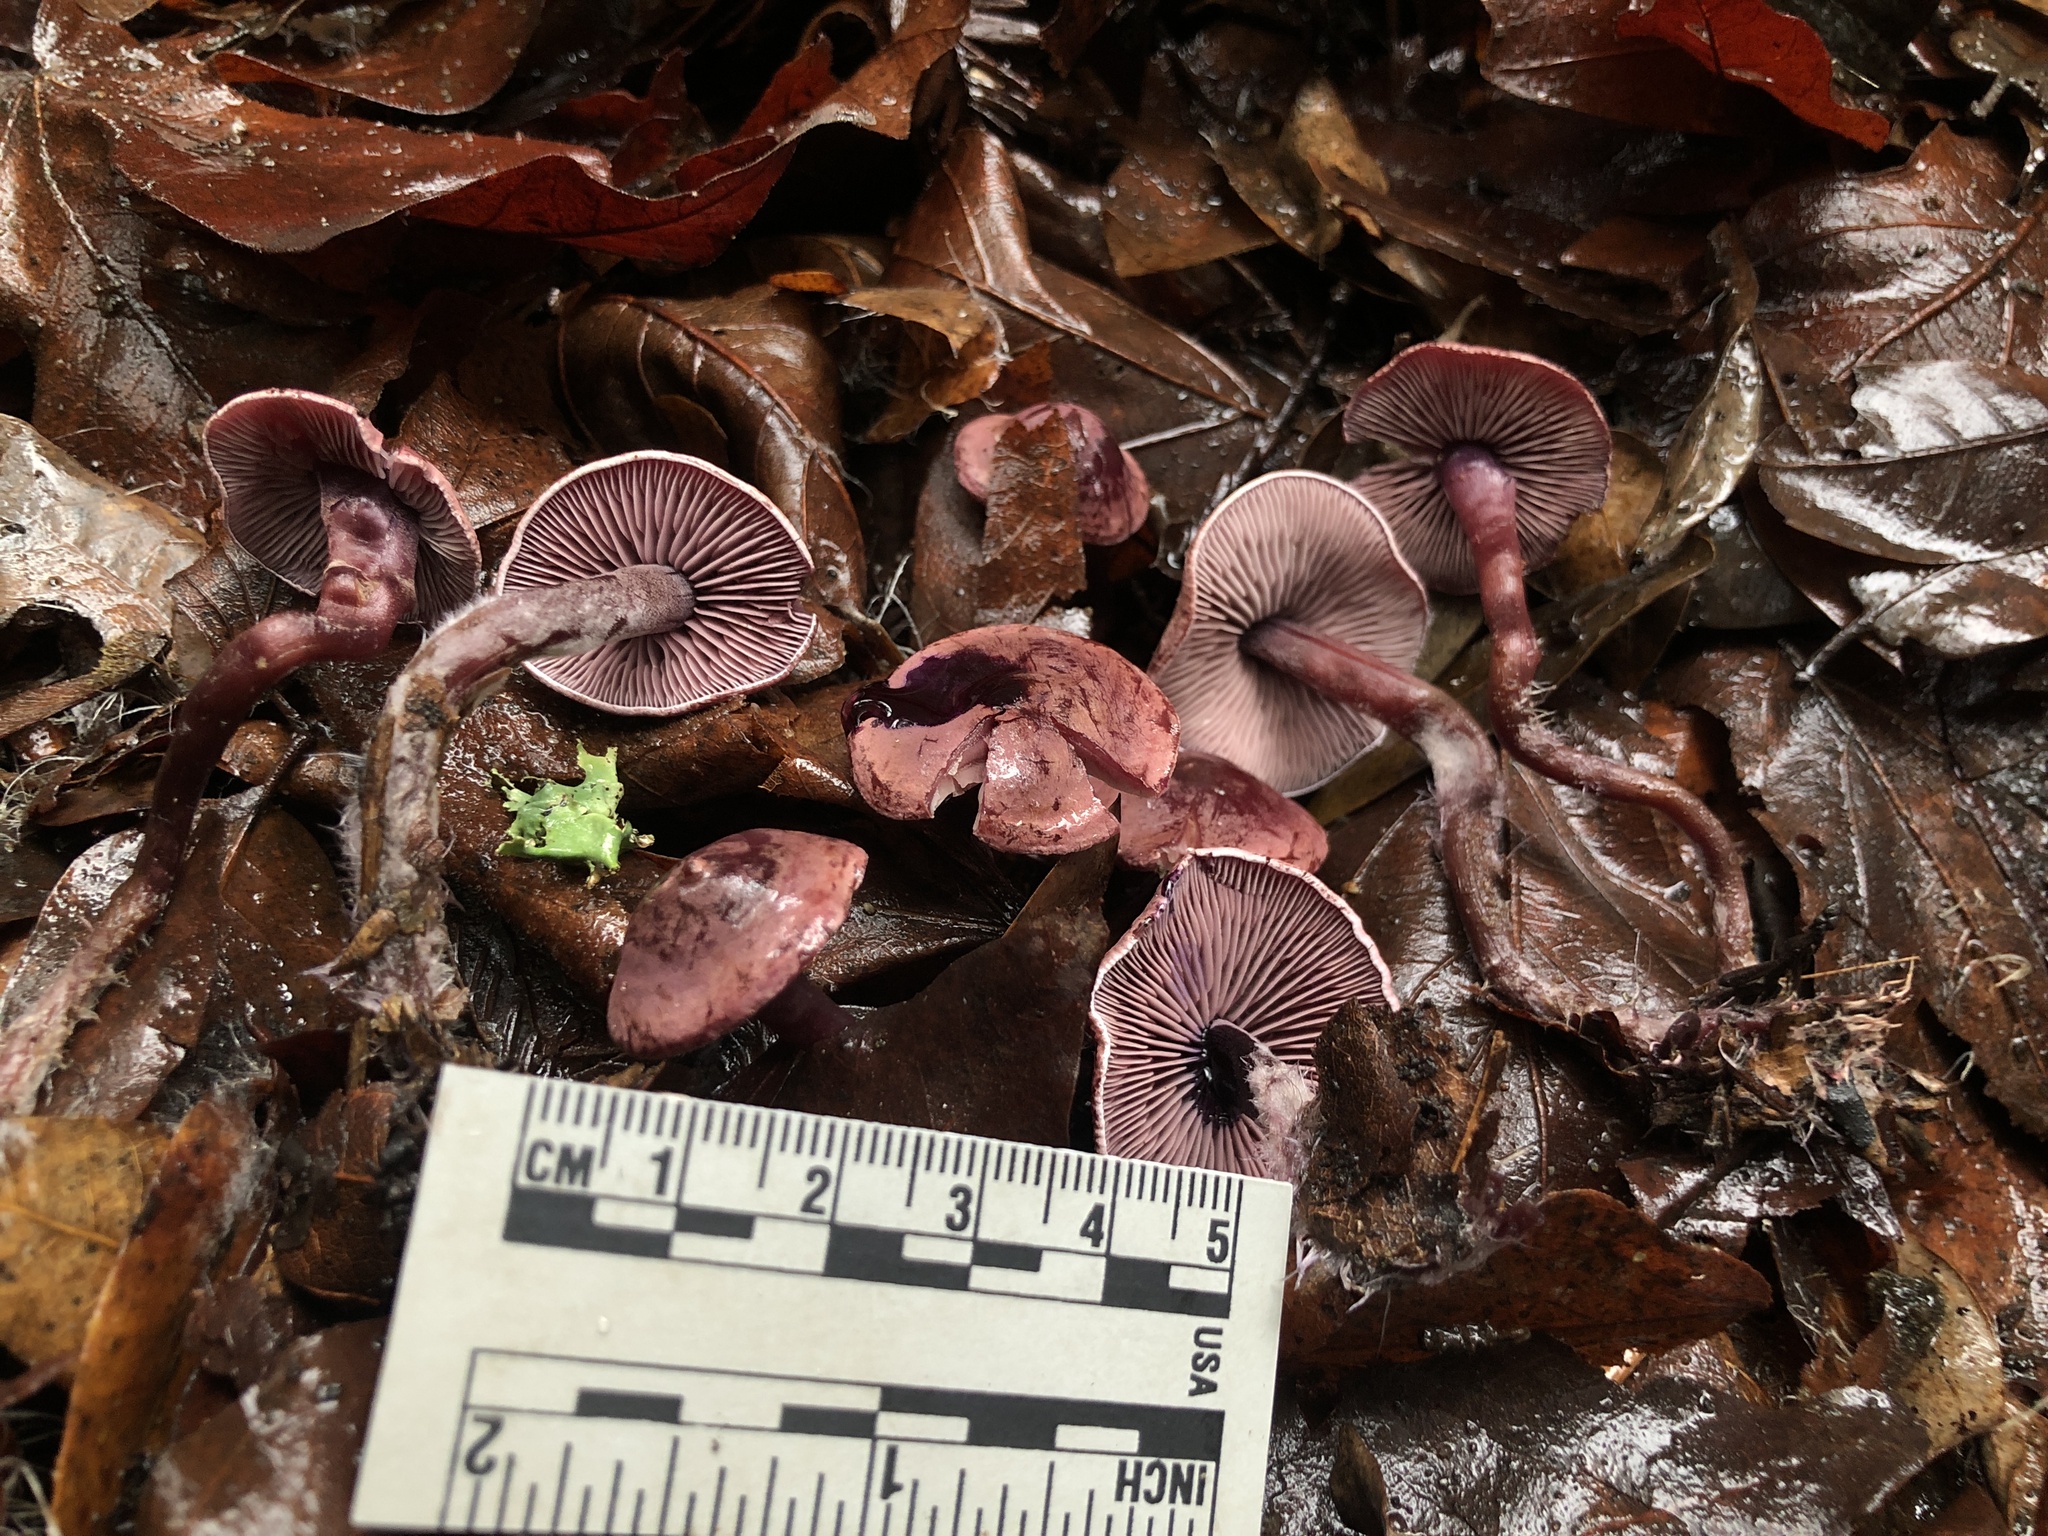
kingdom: Fungi
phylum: Basidiomycota
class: Agaricomycetes
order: Agaricales
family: Tricholomataceae
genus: Pseudobaeospora
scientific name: Pseudobaeospora deckeri
